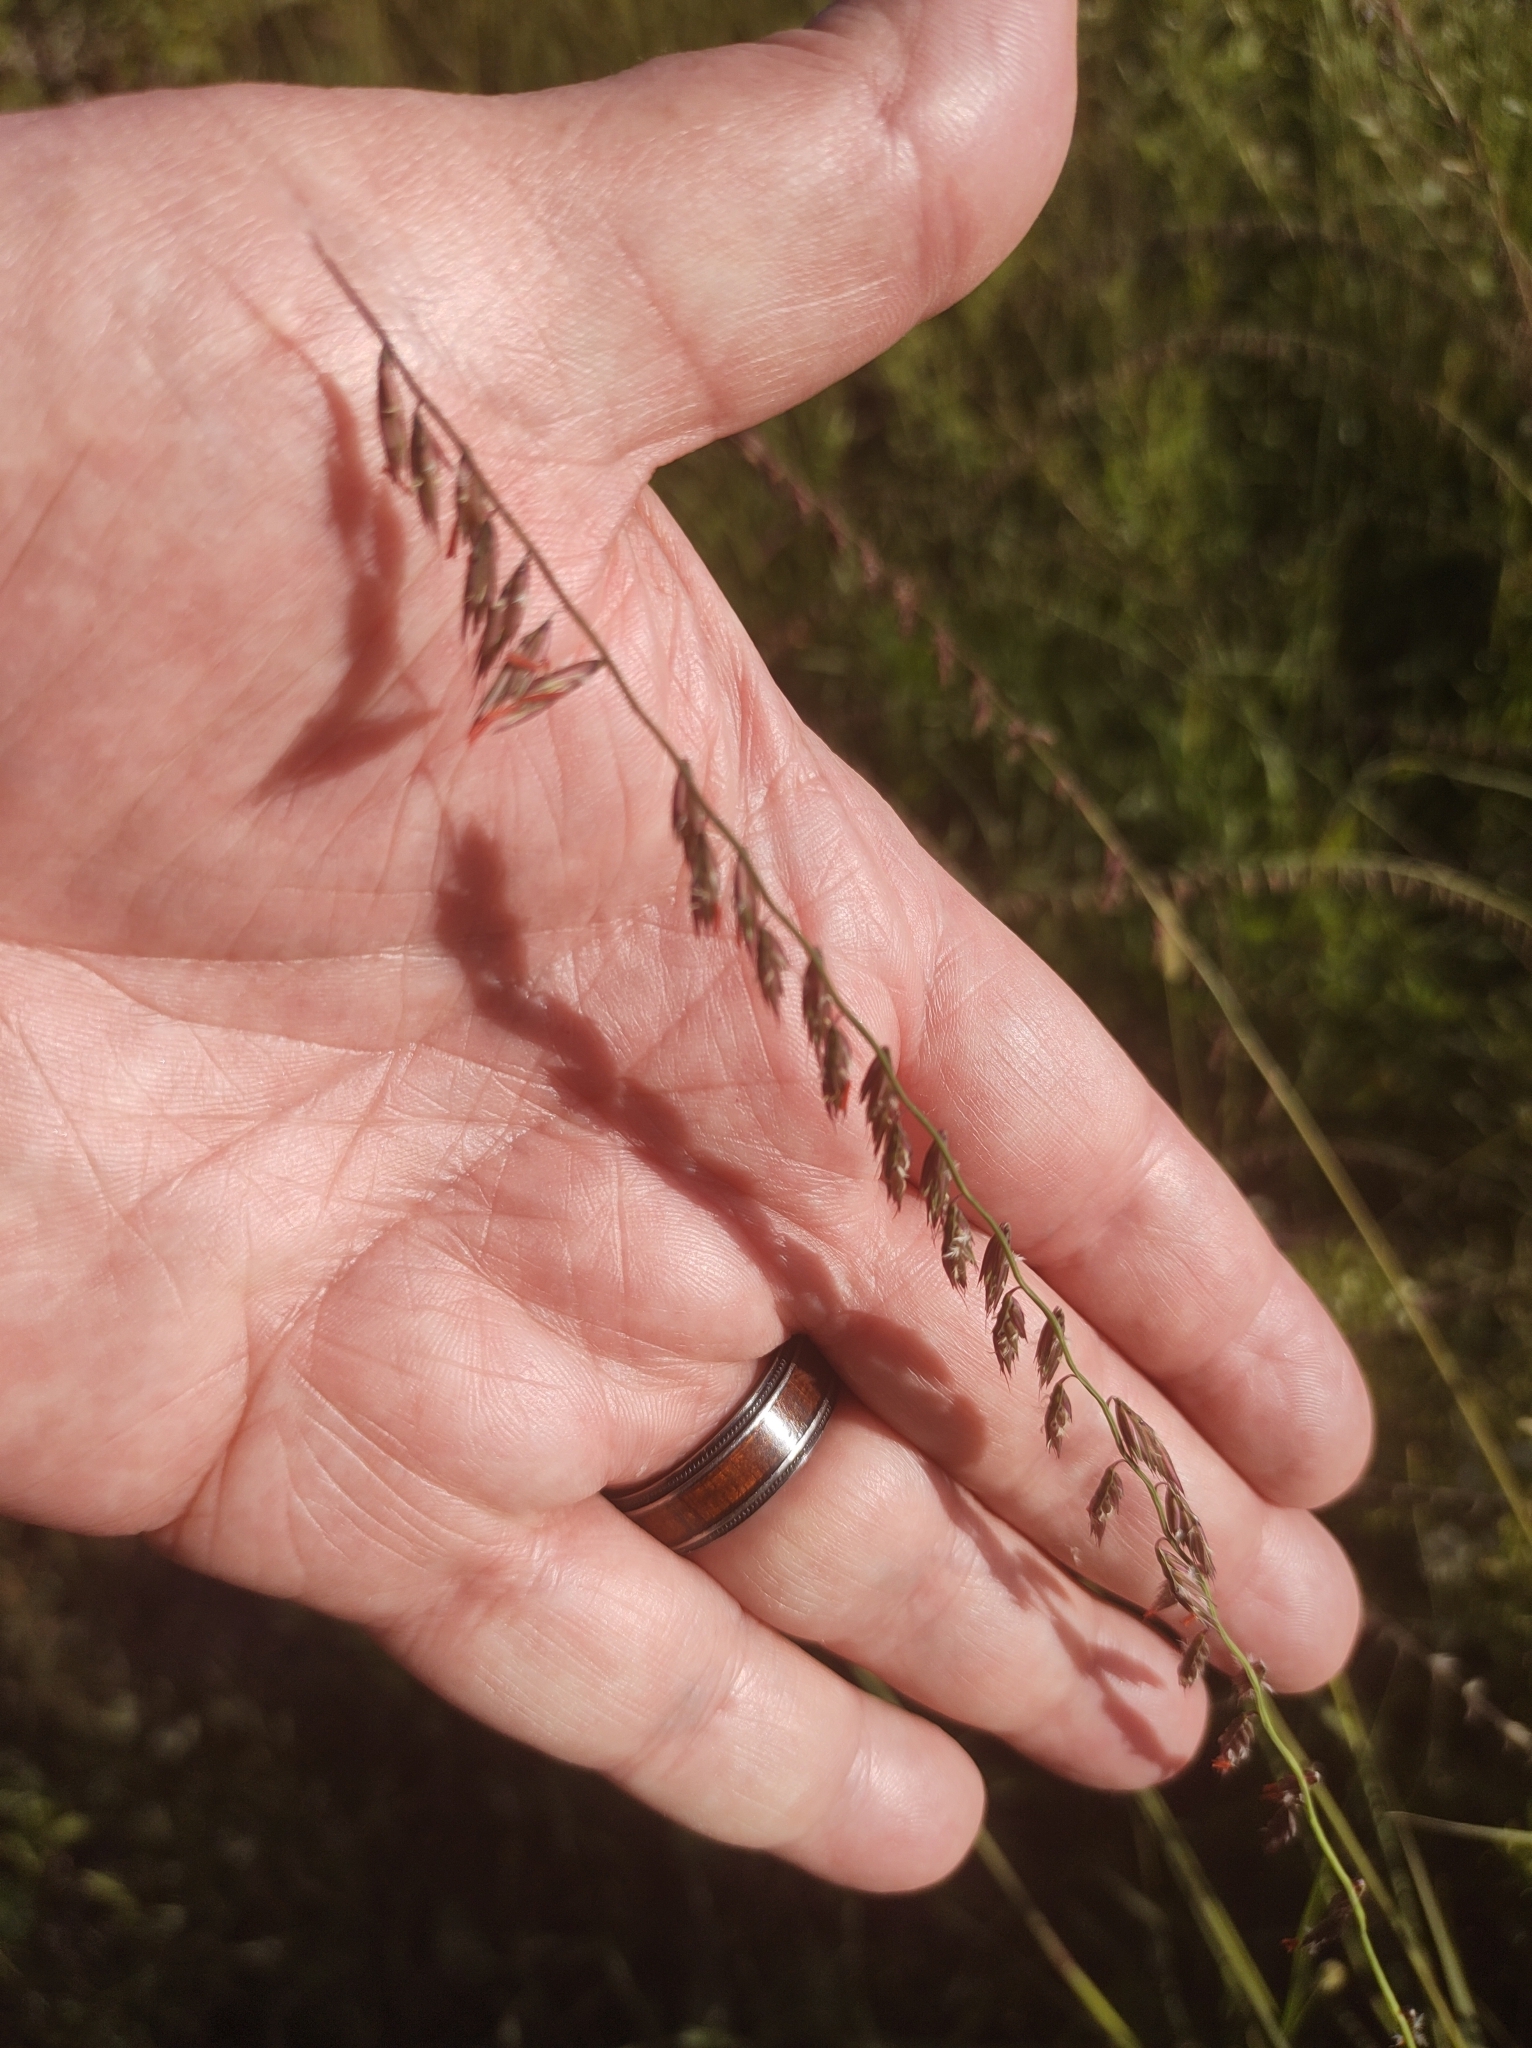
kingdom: Plantae
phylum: Tracheophyta
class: Liliopsida
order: Poales
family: Poaceae
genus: Bouteloua
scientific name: Bouteloua curtipendula
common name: Side-oats grama
